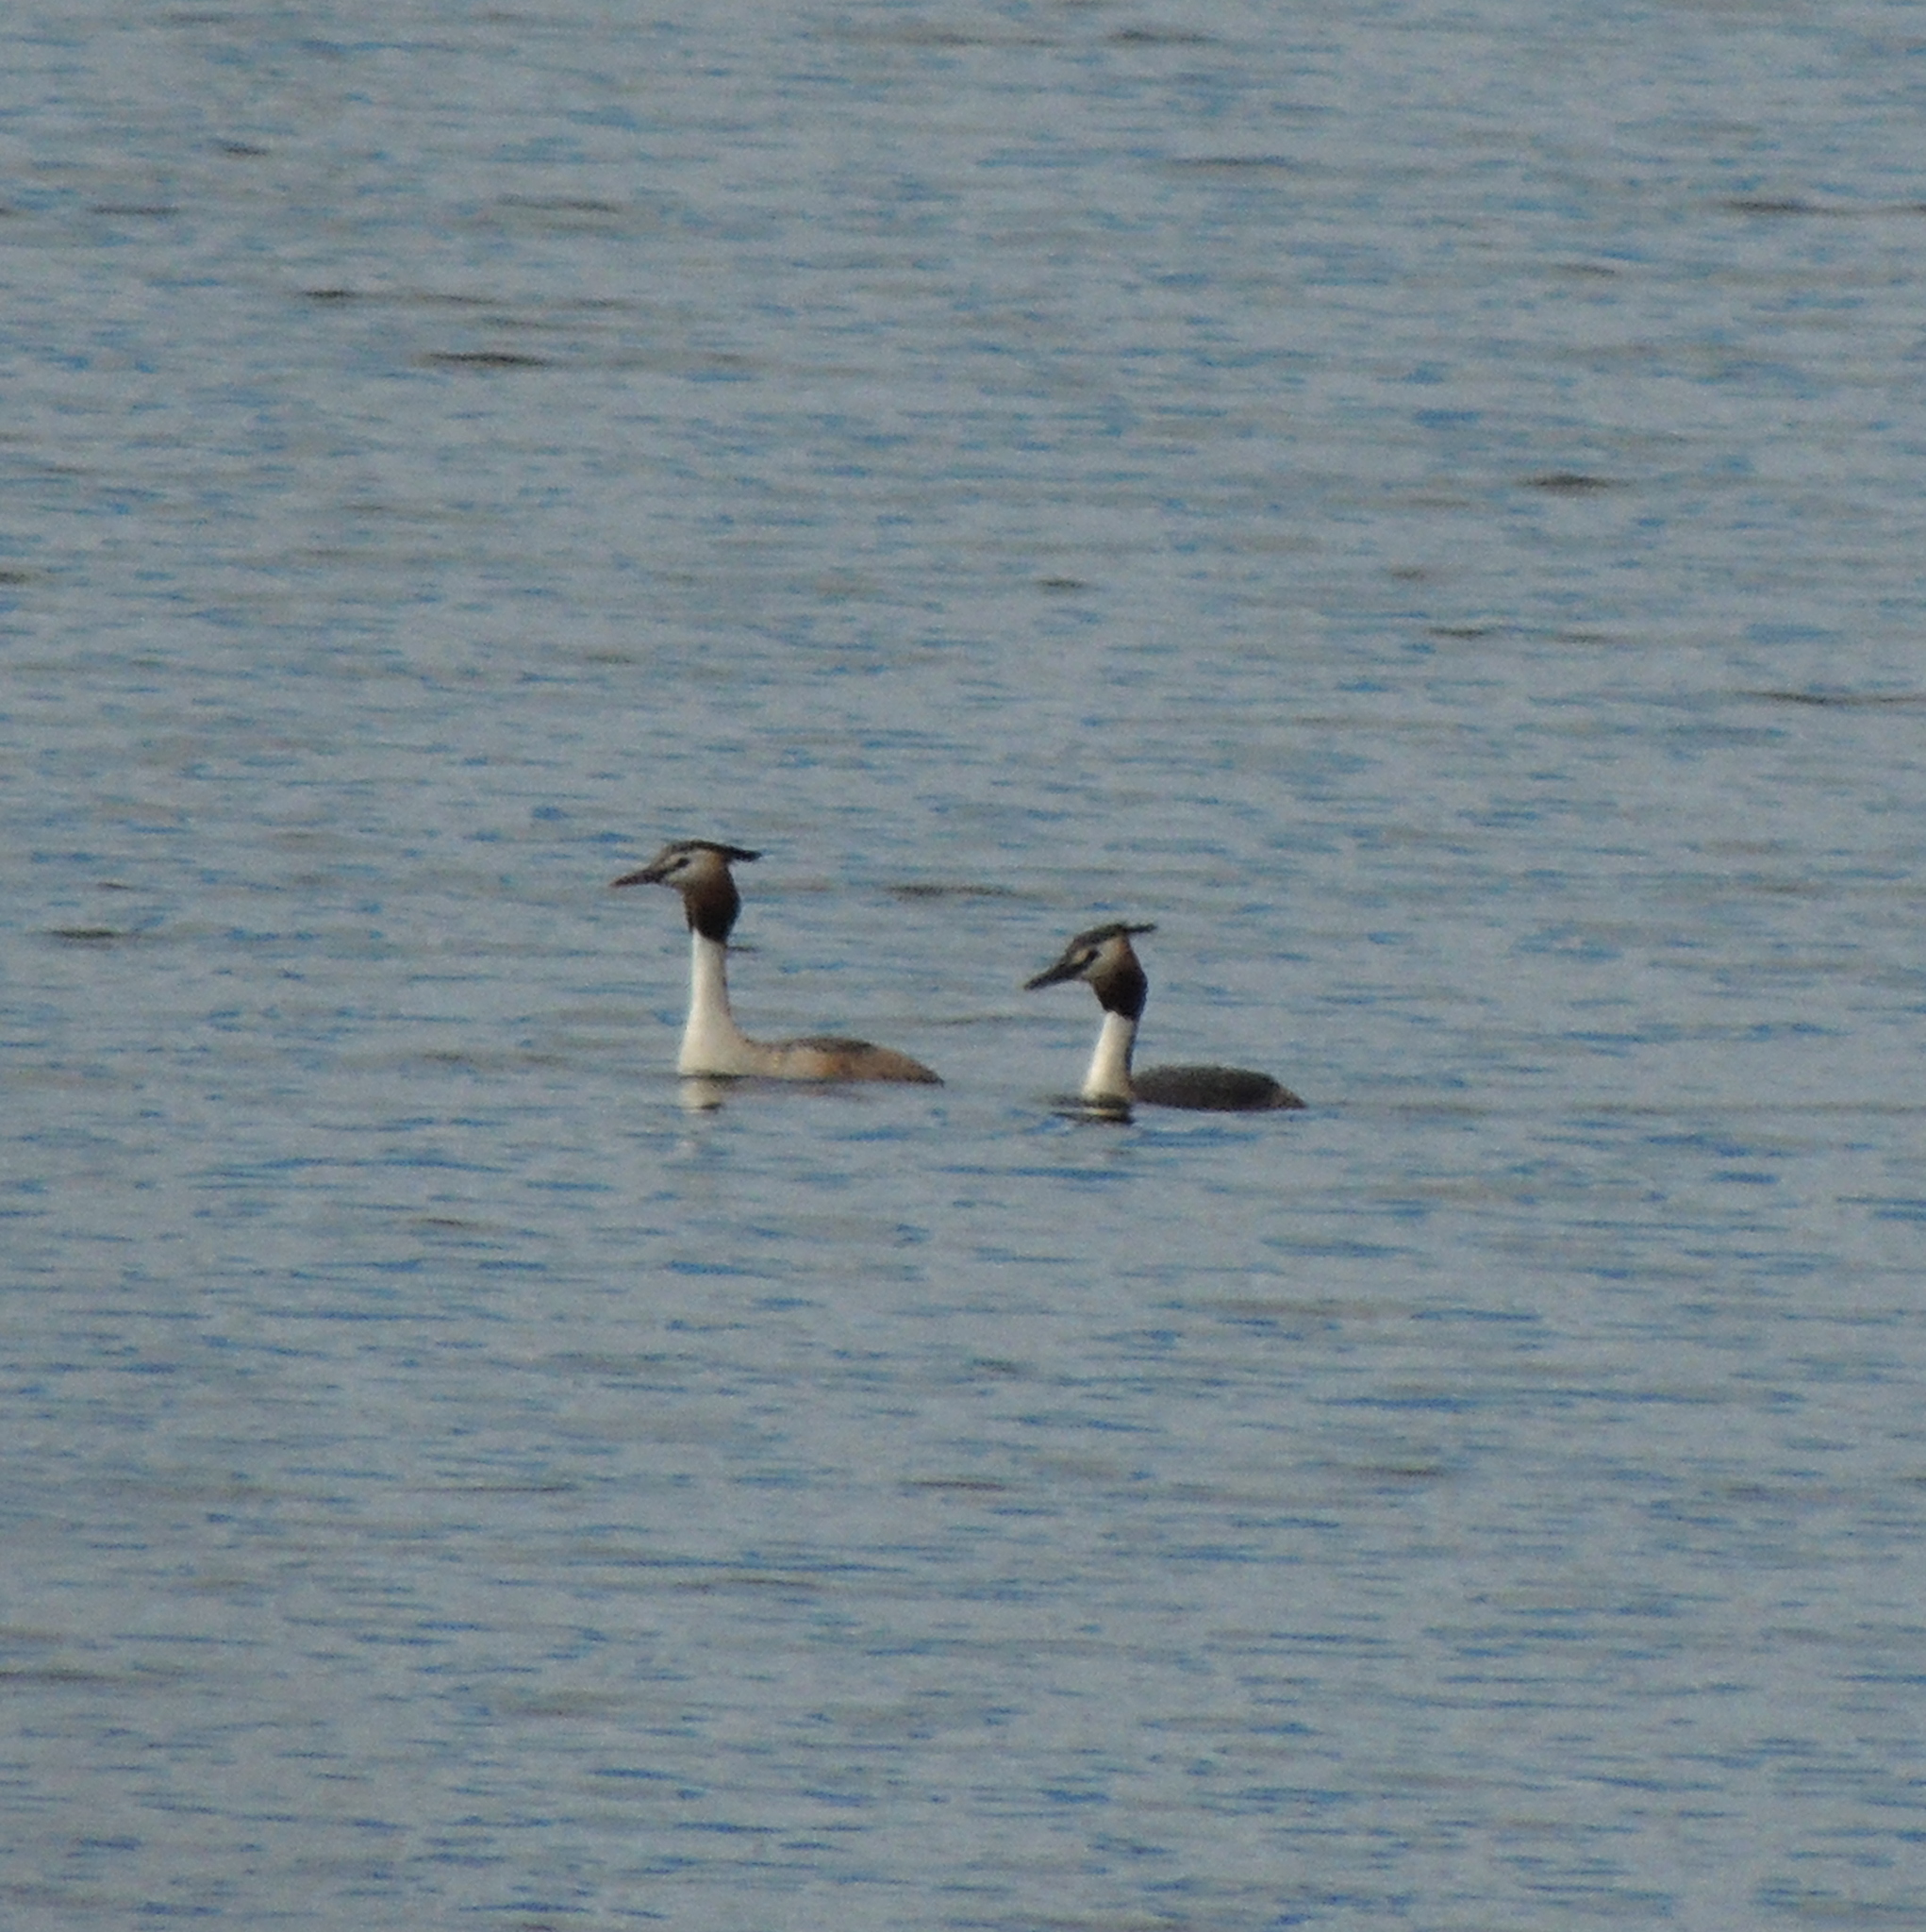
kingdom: Animalia
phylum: Chordata
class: Aves
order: Podicipediformes
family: Podicipedidae
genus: Podiceps
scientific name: Podiceps cristatus
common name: Great crested grebe
